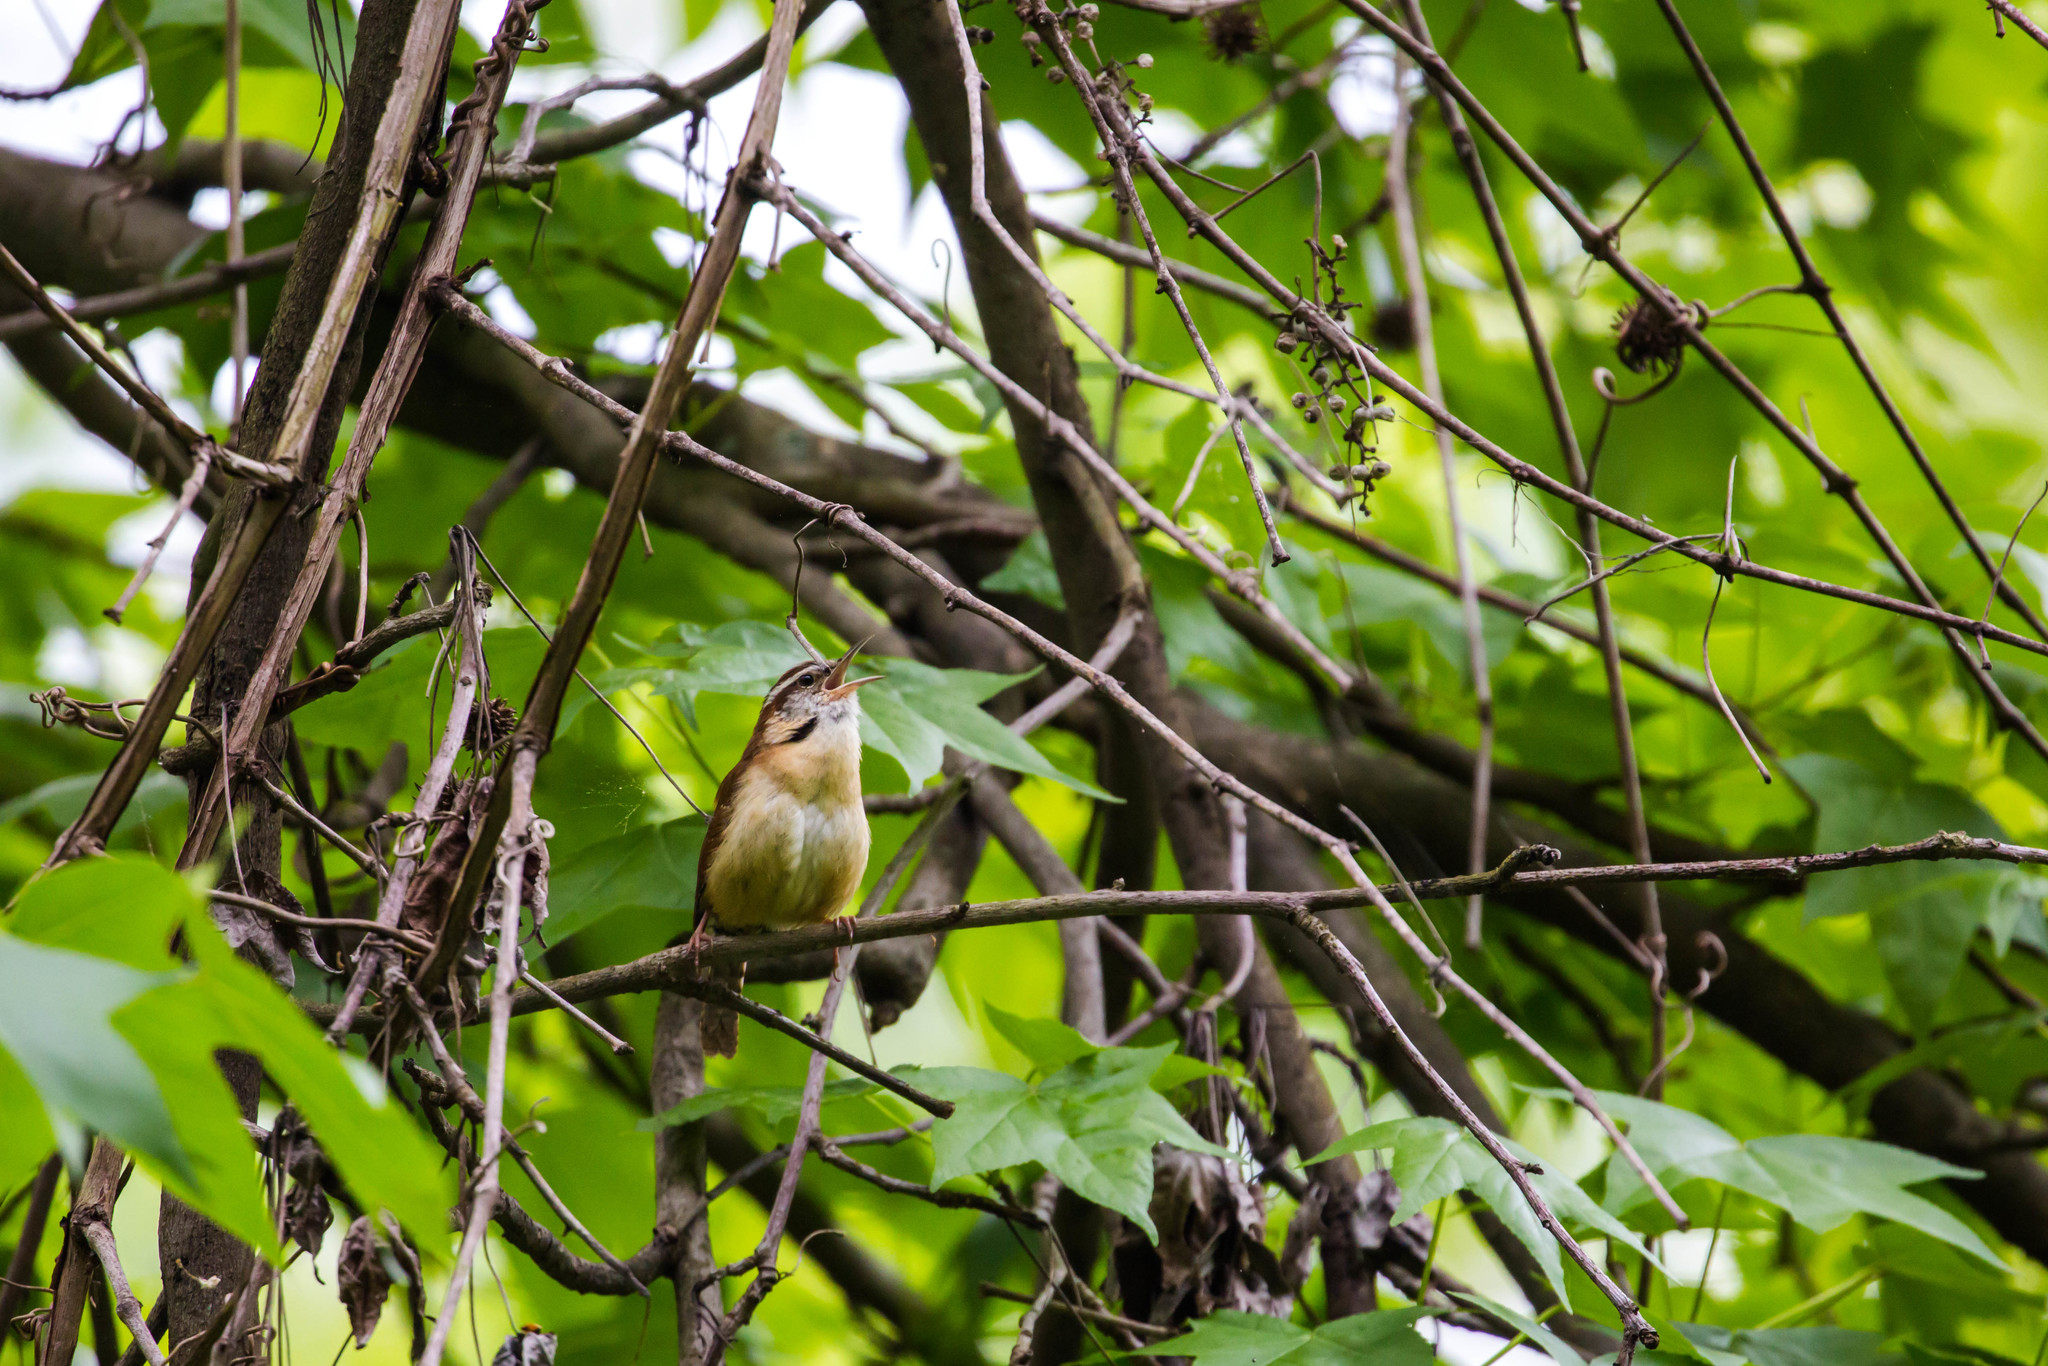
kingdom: Animalia
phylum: Chordata
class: Aves
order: Passeriformes
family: Troglodytidae
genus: Thryothorus
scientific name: Thryothorus ludovicianus
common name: Carolina wren
